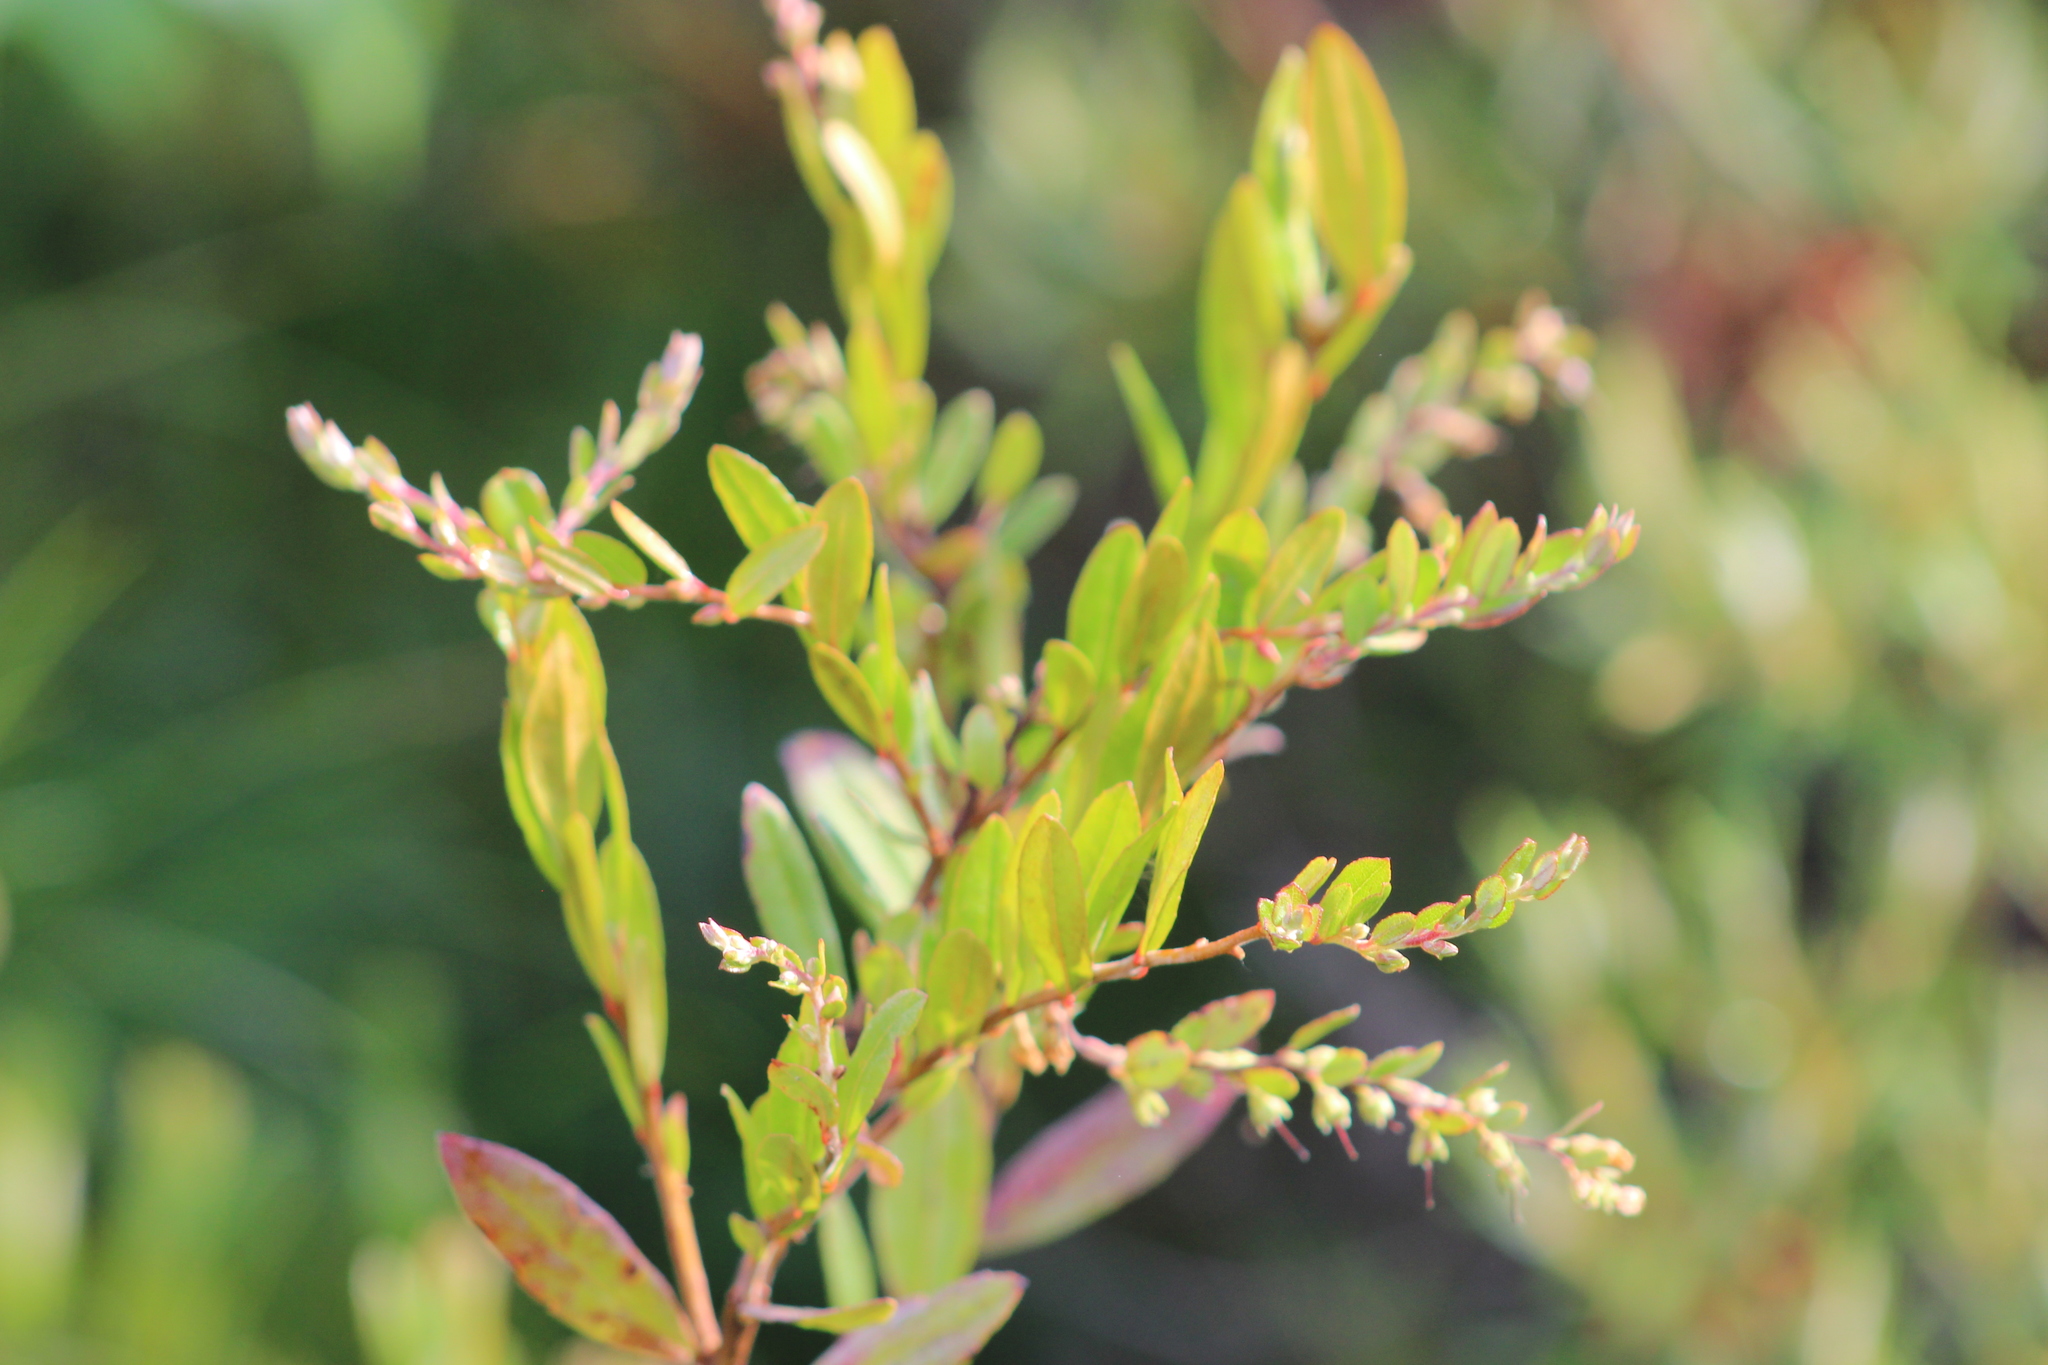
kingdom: Plantae
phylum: Tracheophyta
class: Magnoliopsida
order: Ericales
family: Ericaceae
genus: Chamaedaphne
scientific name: Chamaedaphne calyculata
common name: Leatherleaf
